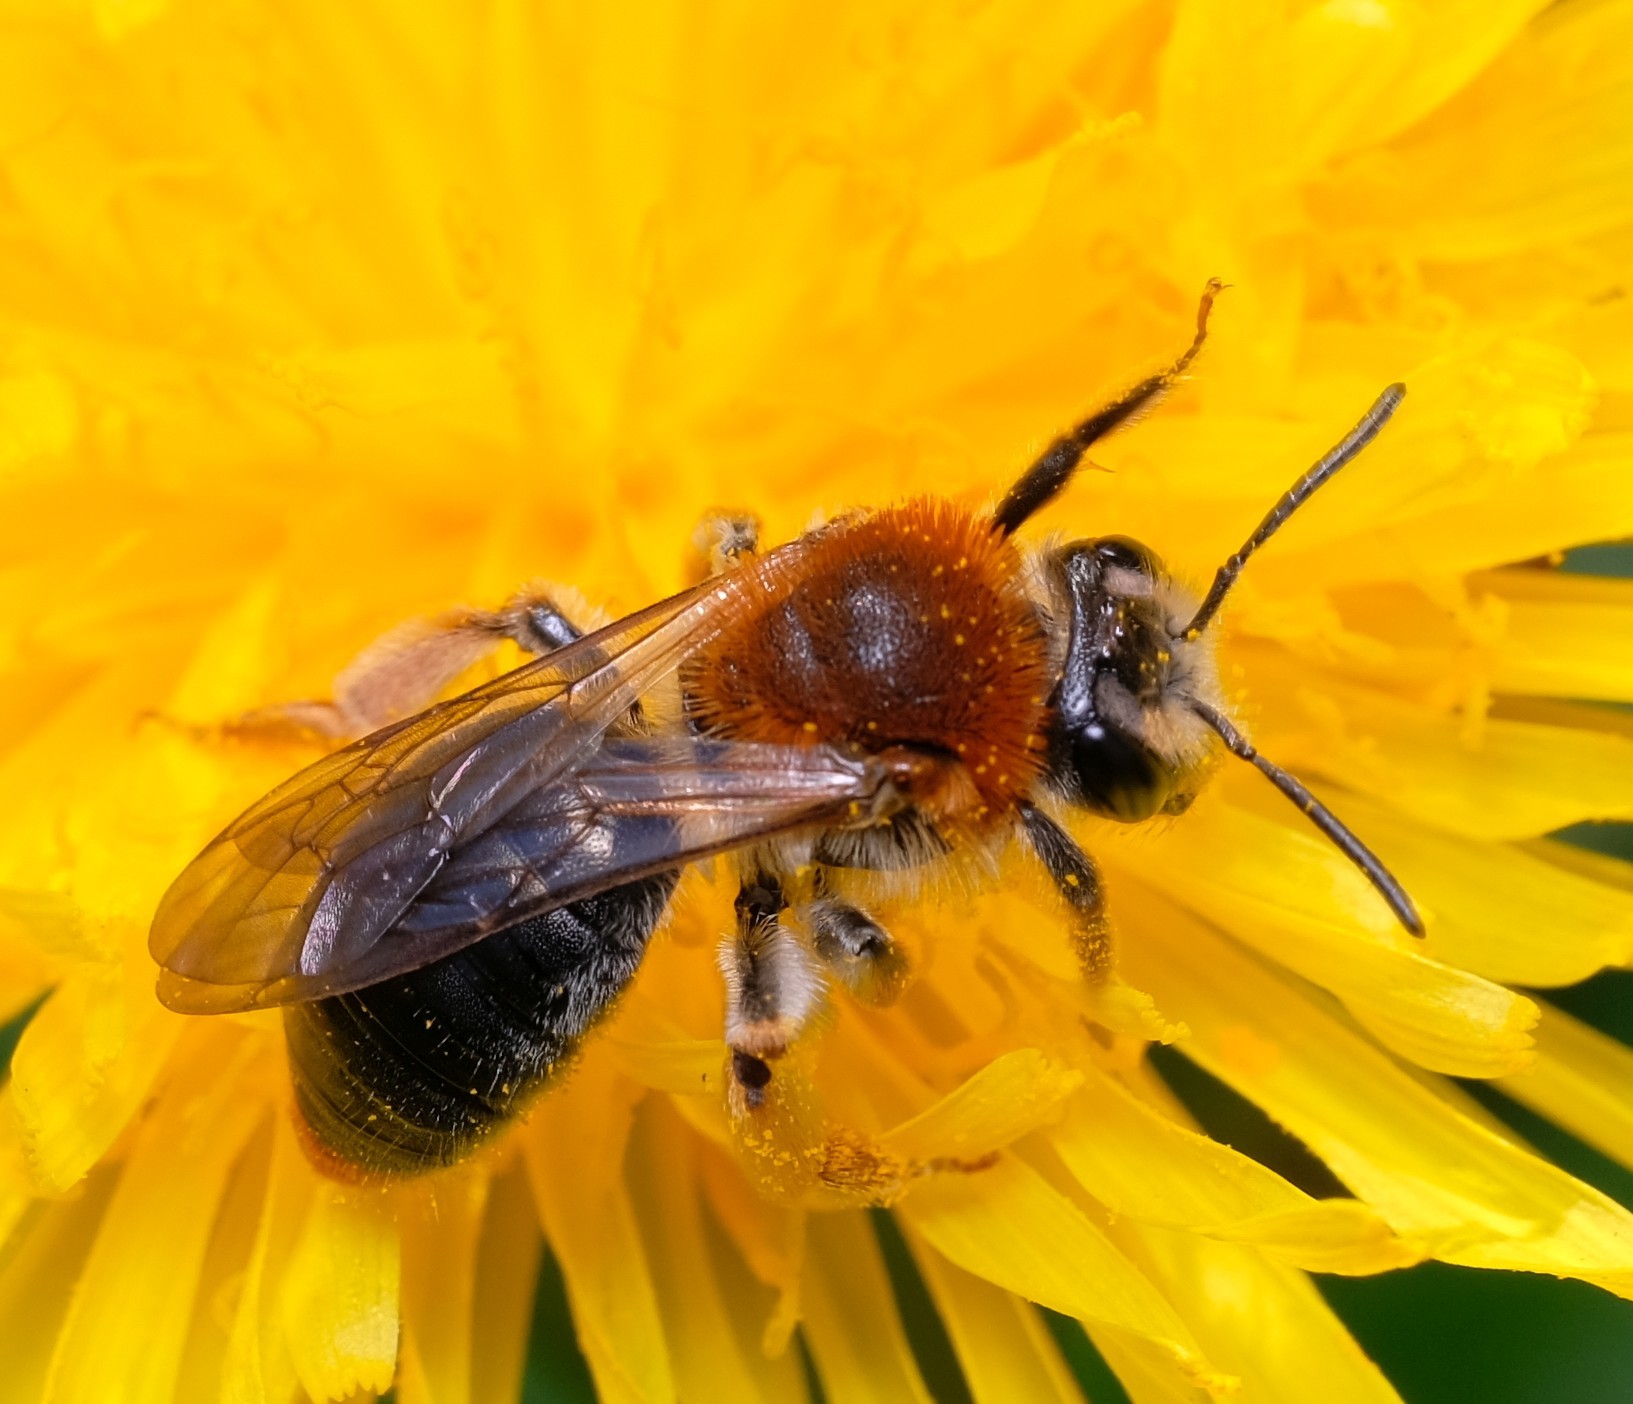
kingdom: Animalia
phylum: Arthropoda
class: Insecta
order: Hymenoptera
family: Andrenidae
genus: Andrena
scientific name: Andrena haemorrhoa
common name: Early mining bee
